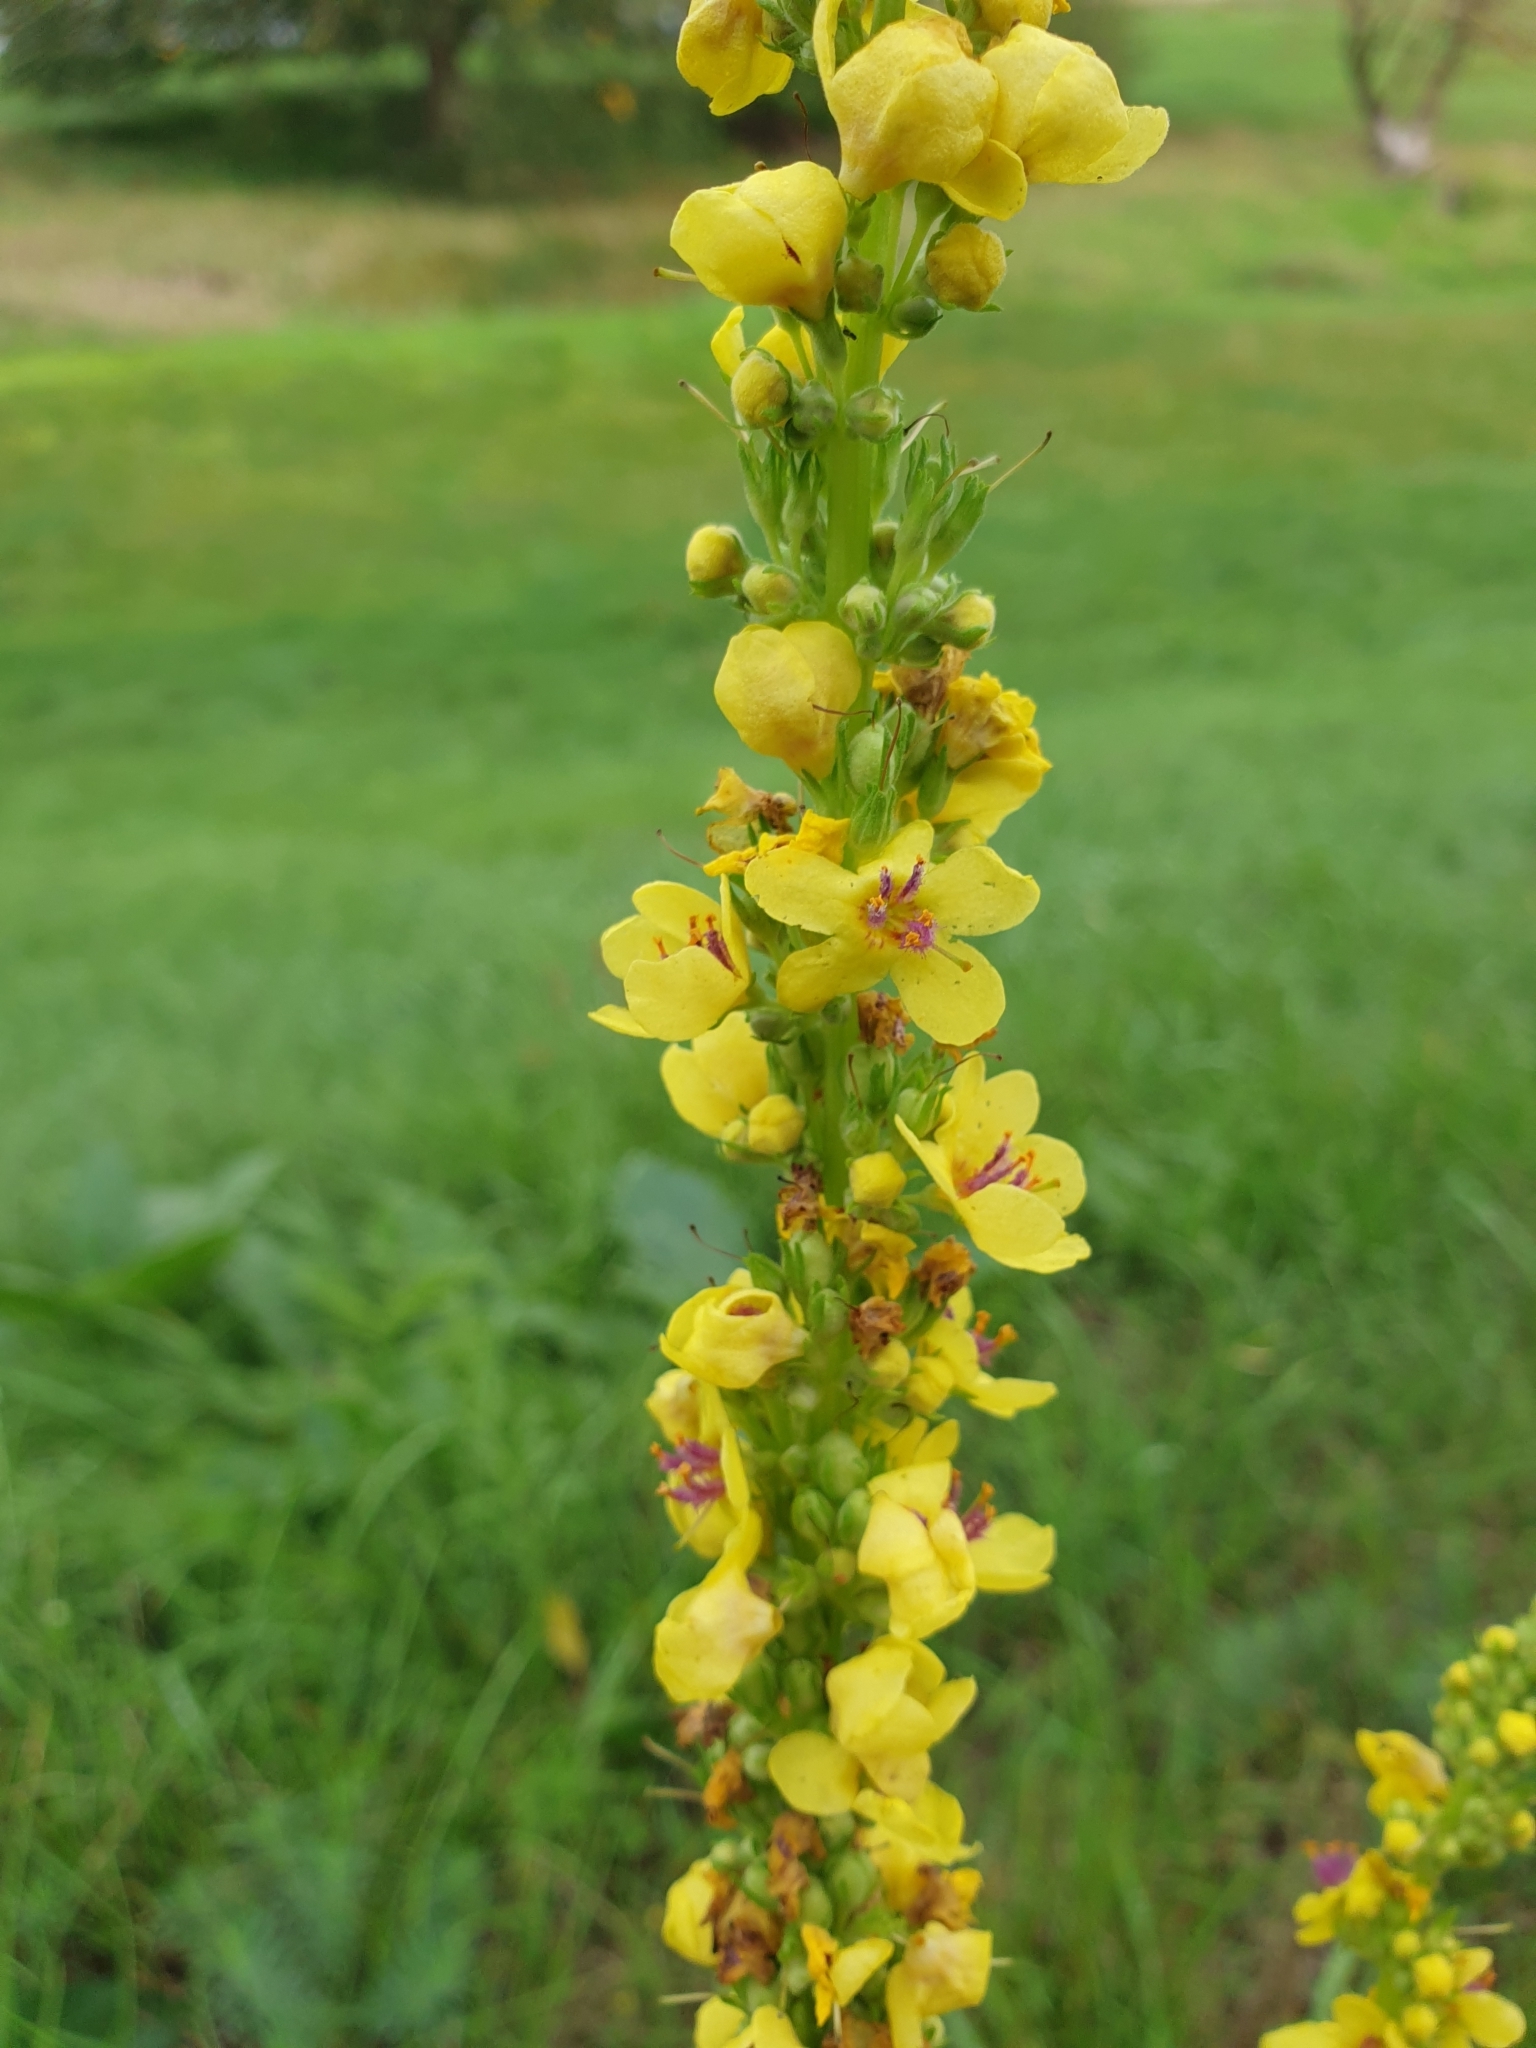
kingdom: Plantae
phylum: Tracheophyta
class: Magnoliopsida
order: Lamiales
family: Scrophulariaceae
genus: Verbascum
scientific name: Verbascum nigrum
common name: Dark mullein
